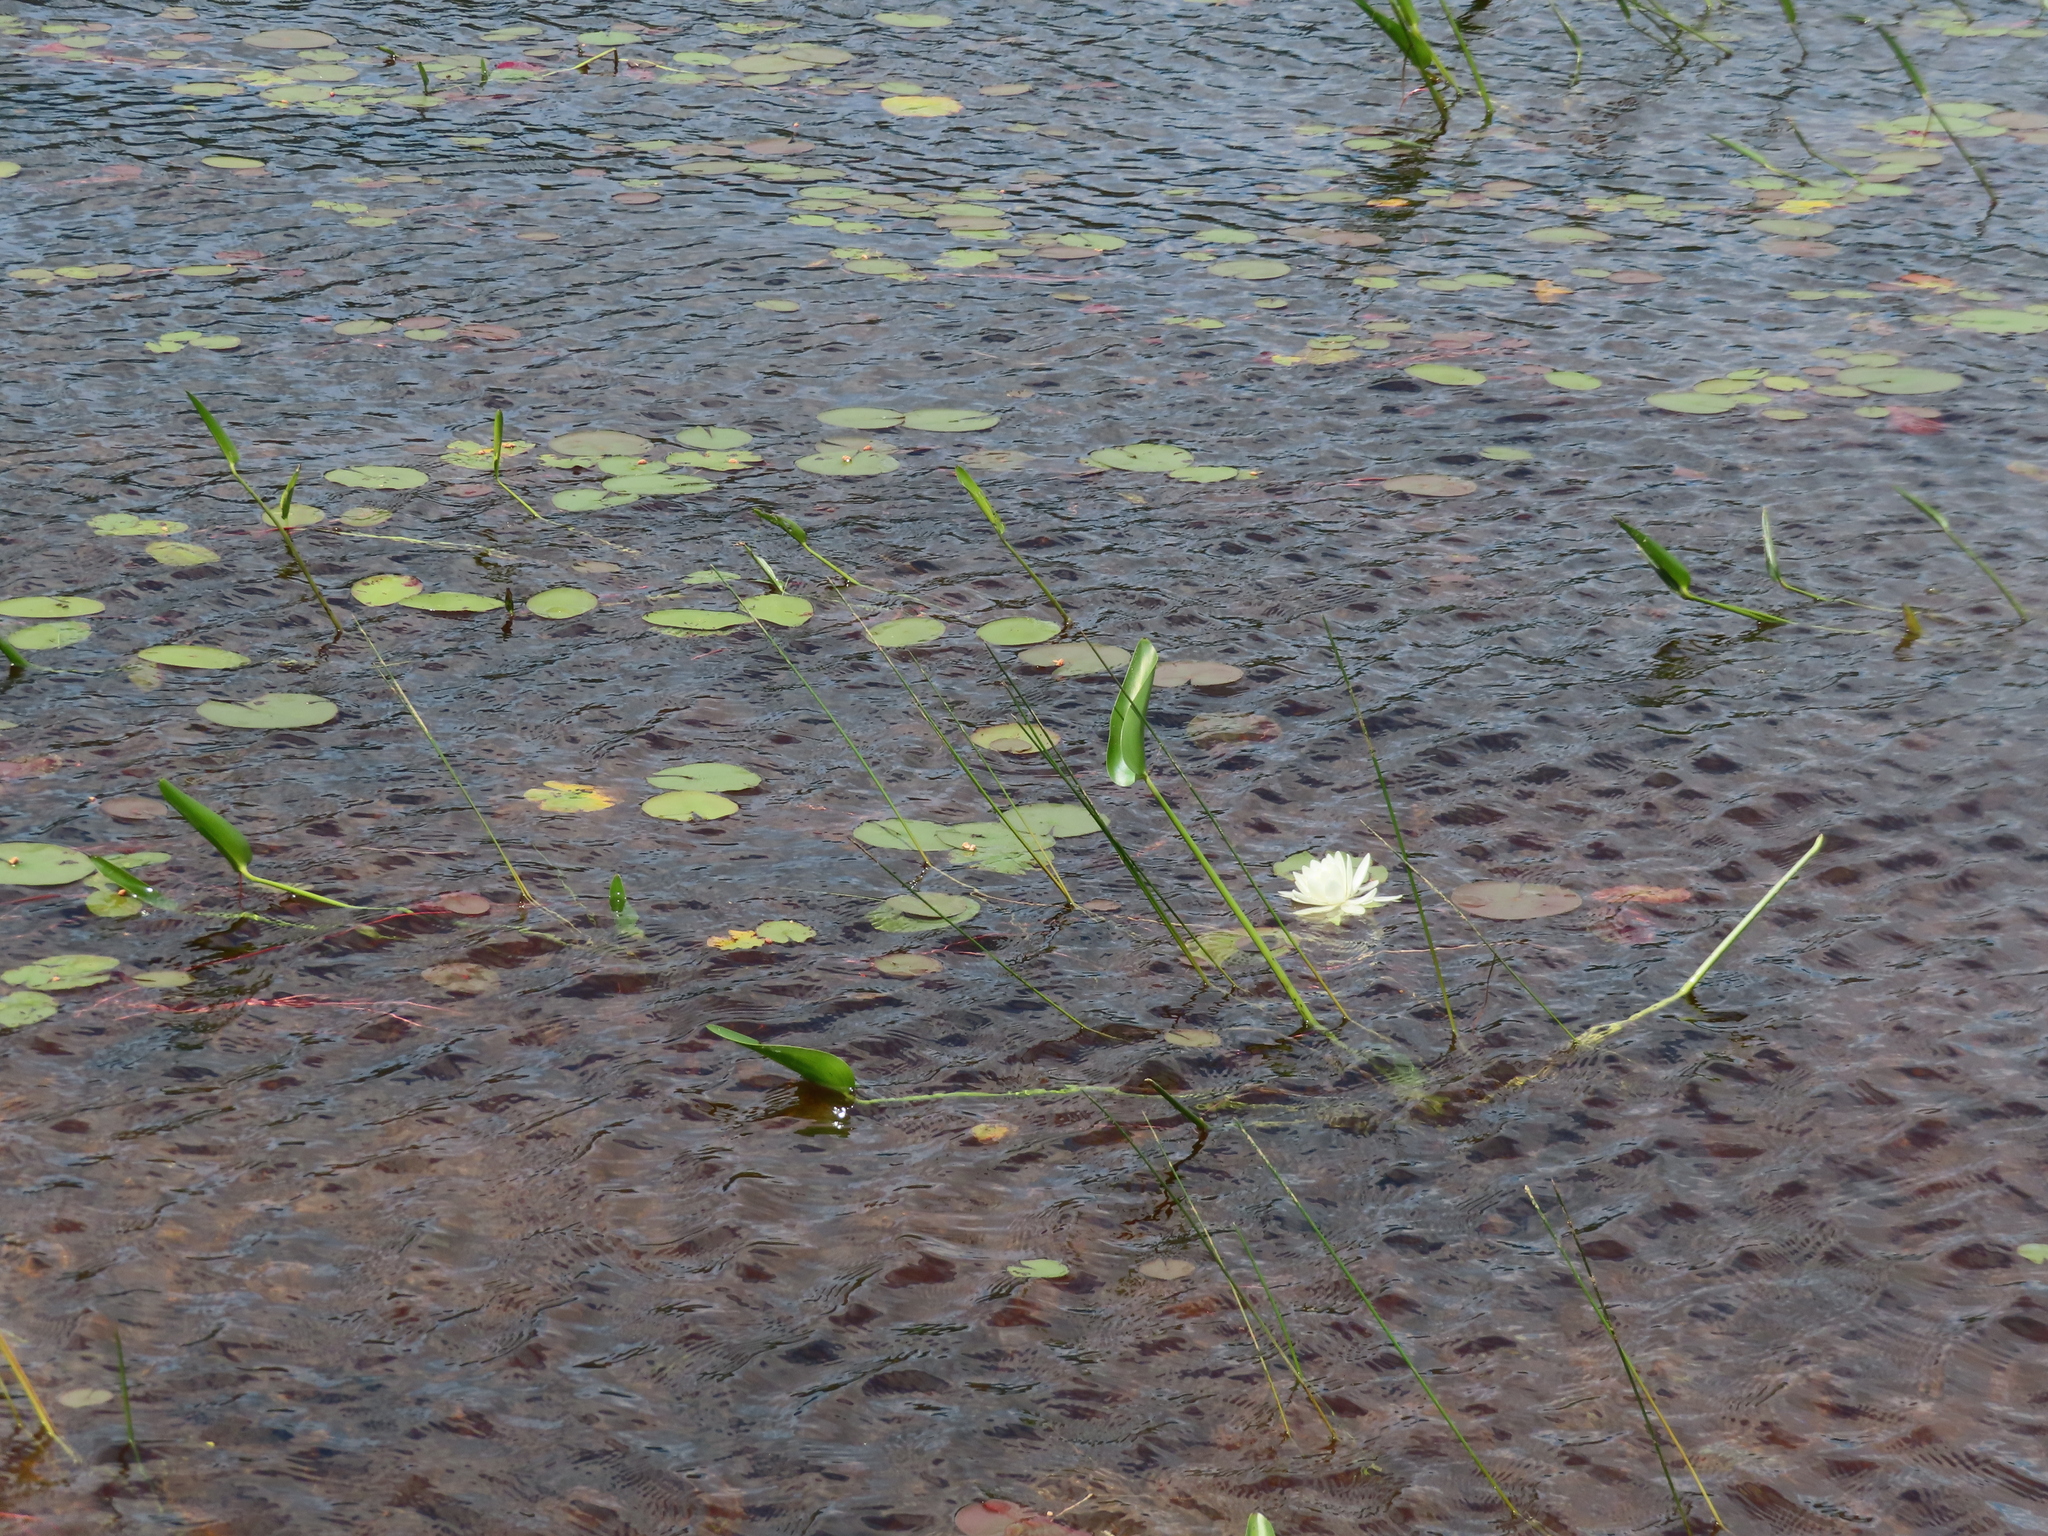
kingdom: Plantae
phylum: Tracheophyta
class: Magnoliopsida
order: Nymphaeales
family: Nymphaeaceae
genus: Nymphaea
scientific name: Nymphaea odorata
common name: Fragrant water-lily
